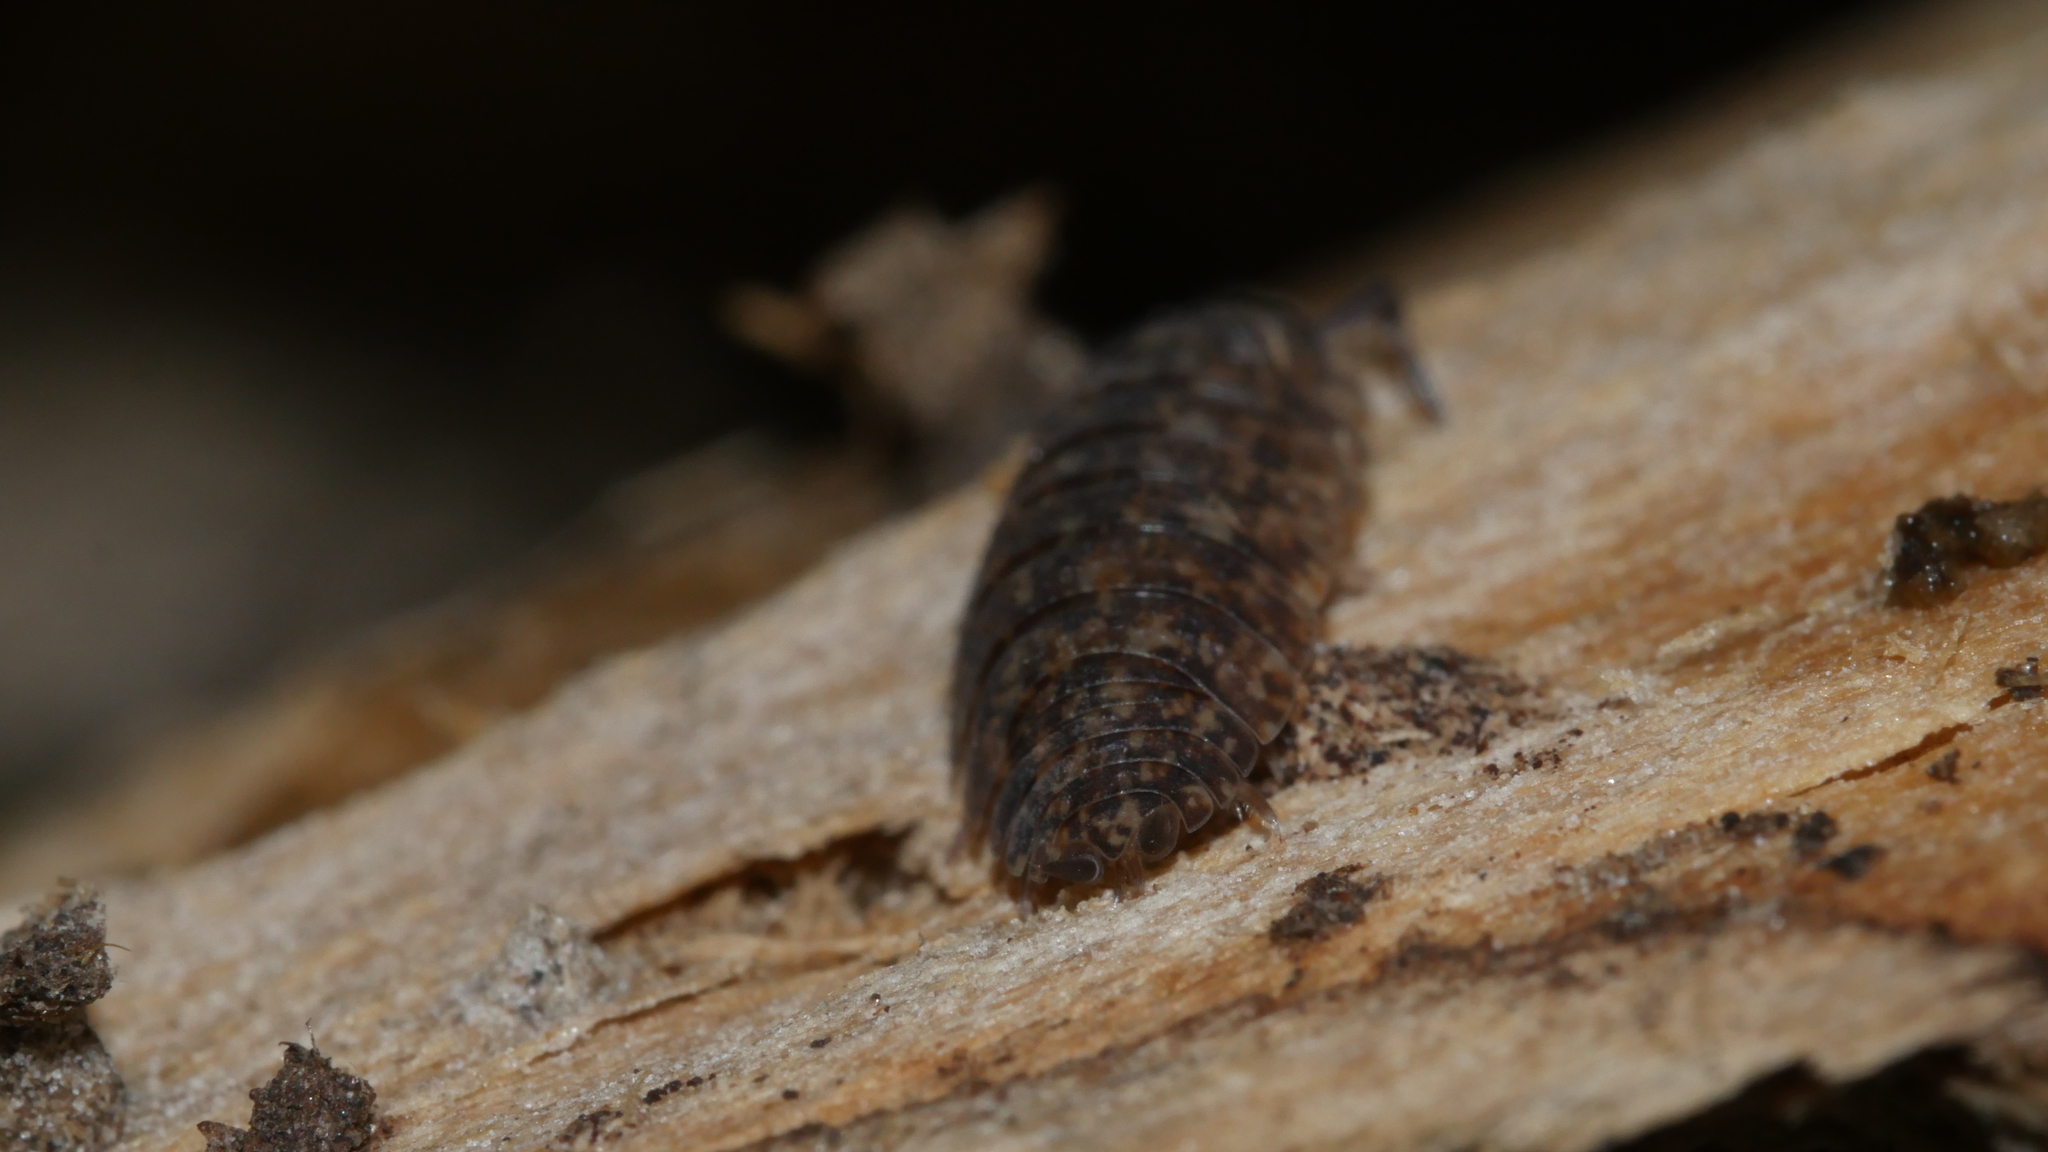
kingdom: Animalia
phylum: Arthropoda
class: Malacostraca
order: Isopoda
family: Porcellionidae
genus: Porcellio
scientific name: Porcellio scaber
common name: Common rough woodlouse
